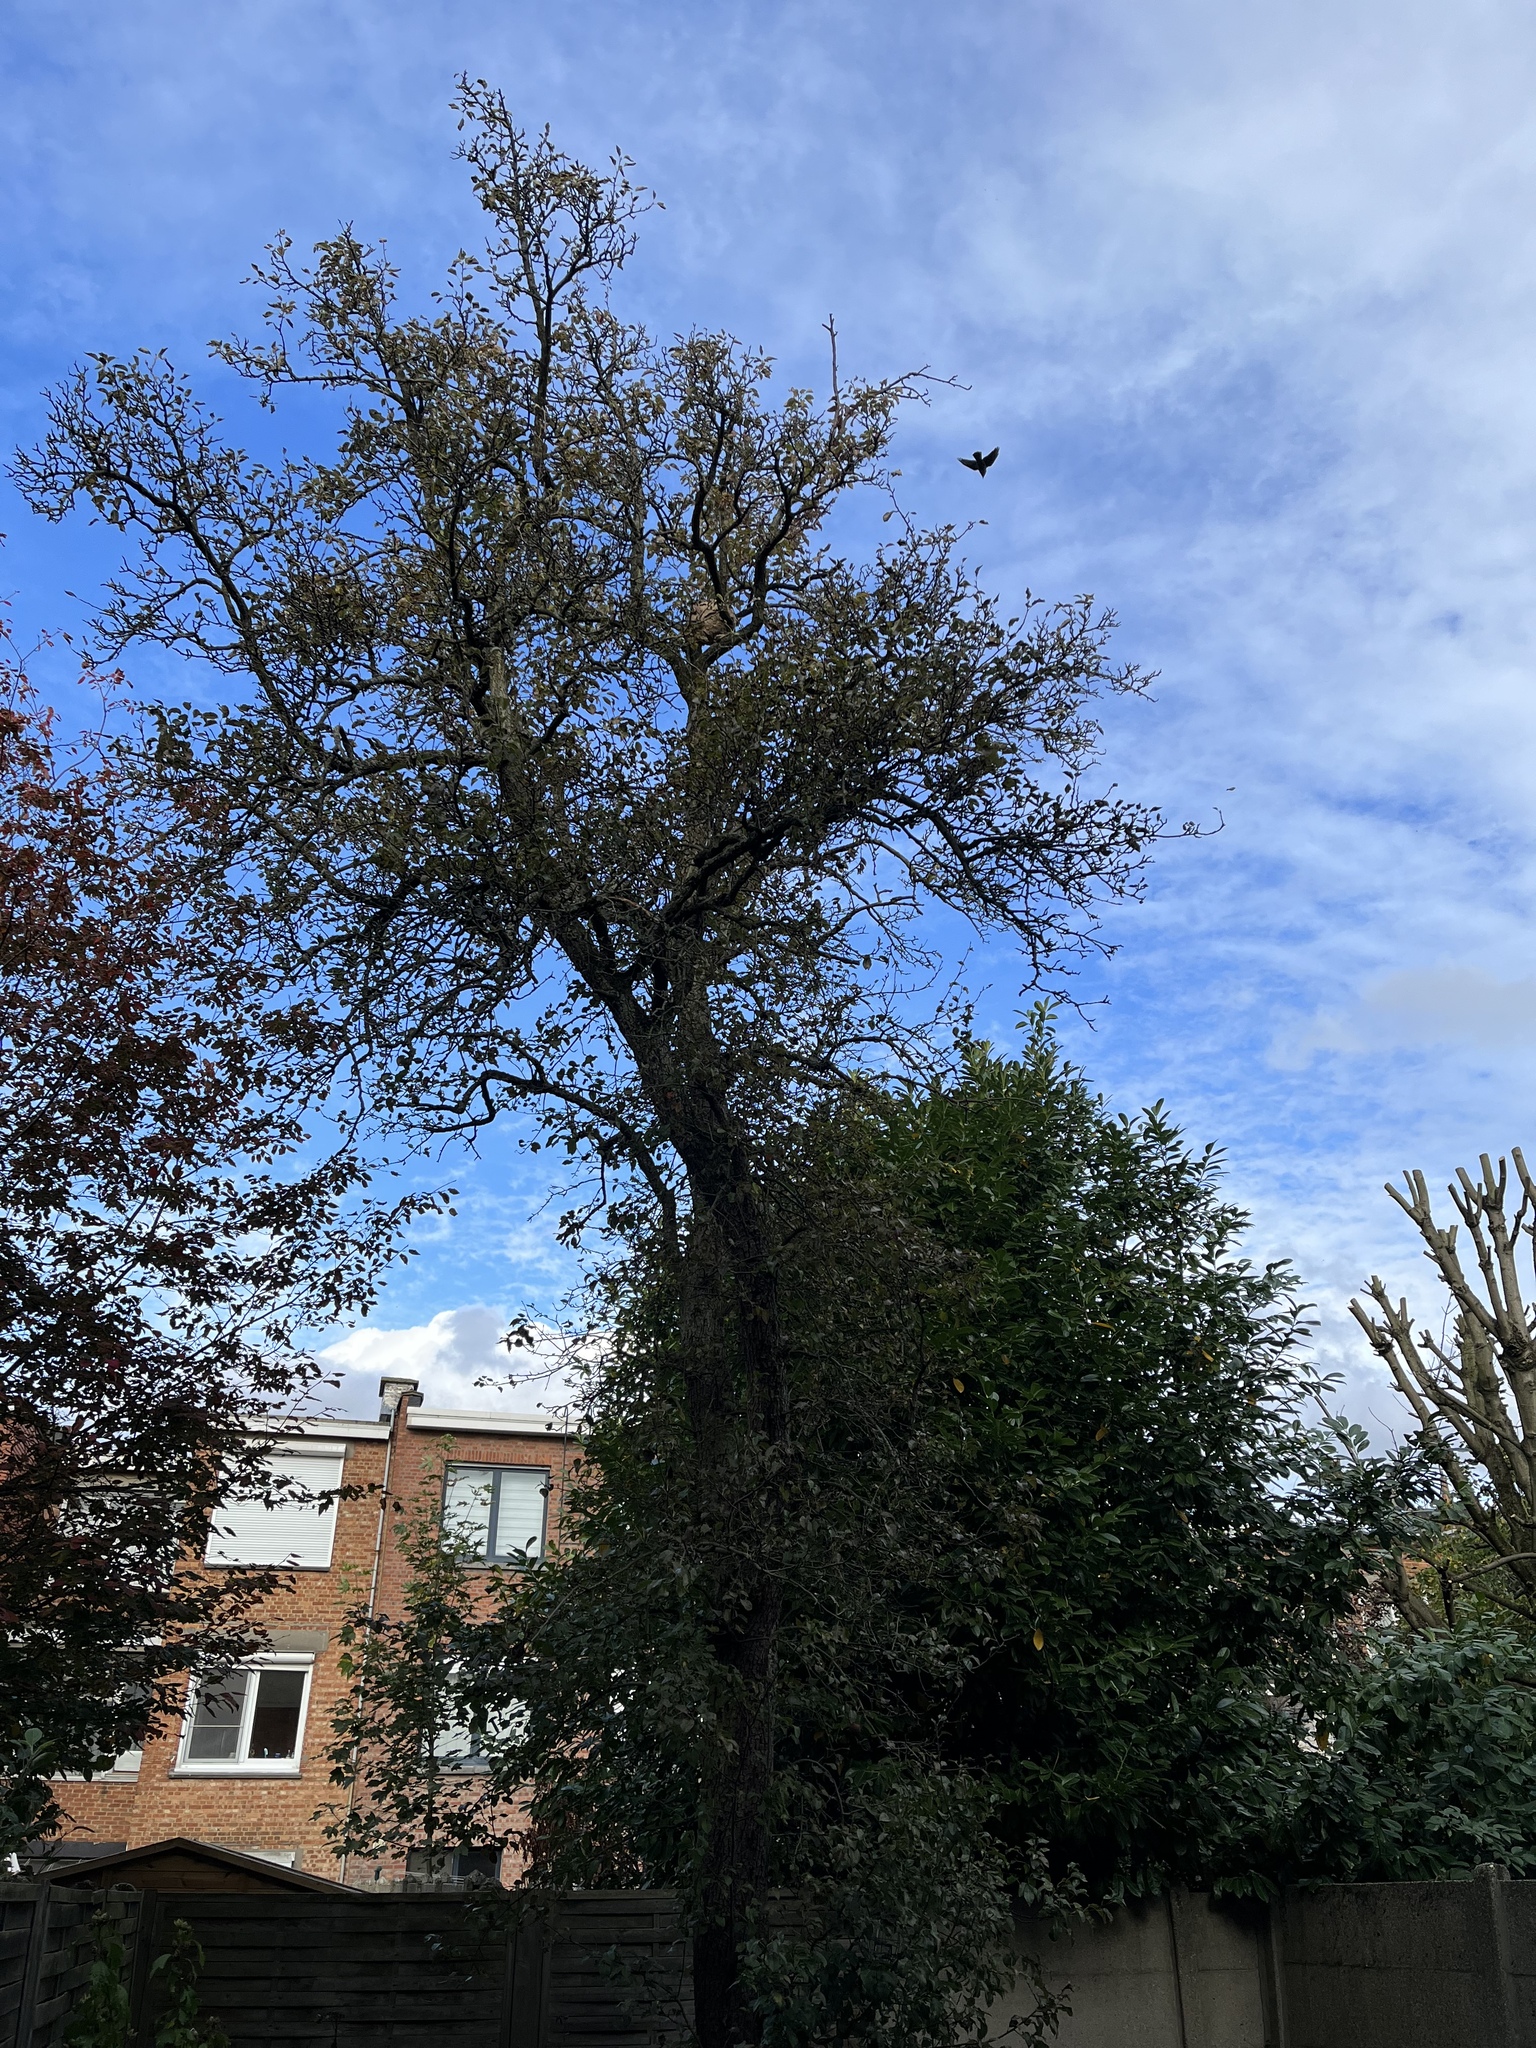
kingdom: Animalia
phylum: Arthropoda
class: Insecta
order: Hymenoptera
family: Vespidae
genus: Vespa
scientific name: Vespa velutina
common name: Asian hornet
